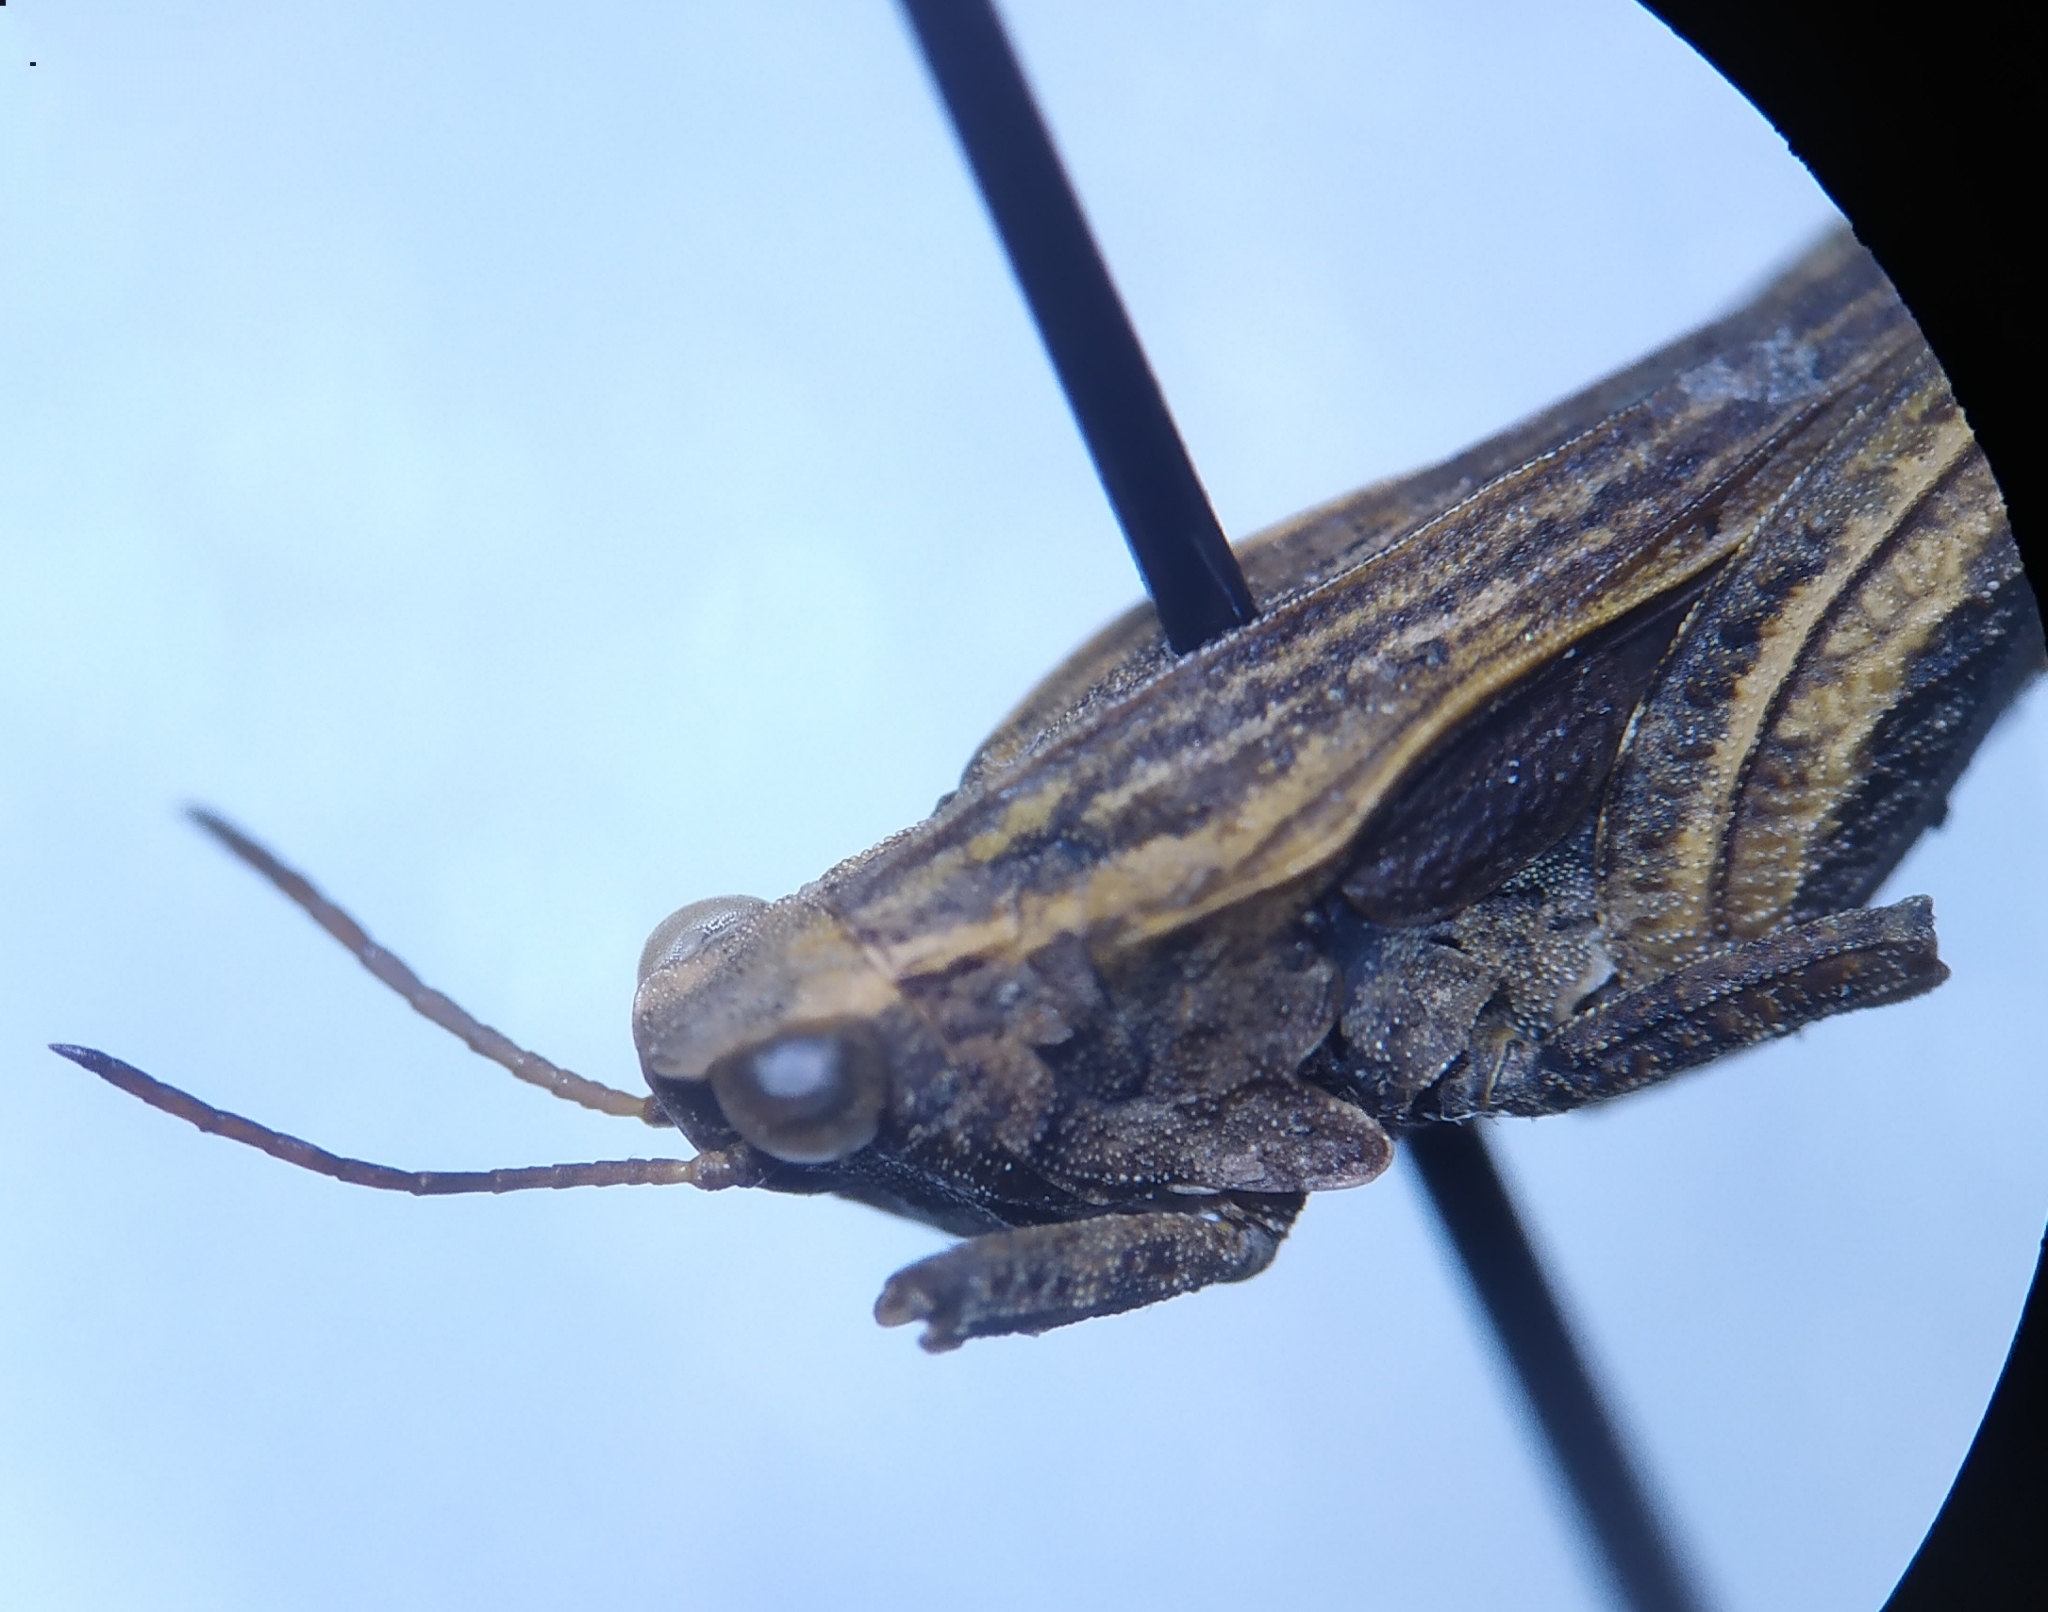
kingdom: Animalia
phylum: Arthropoda
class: Insecta
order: Orthoptera
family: Tetrigidae
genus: Tetrix
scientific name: Tetrix subulata
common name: Slender ground-hopper
